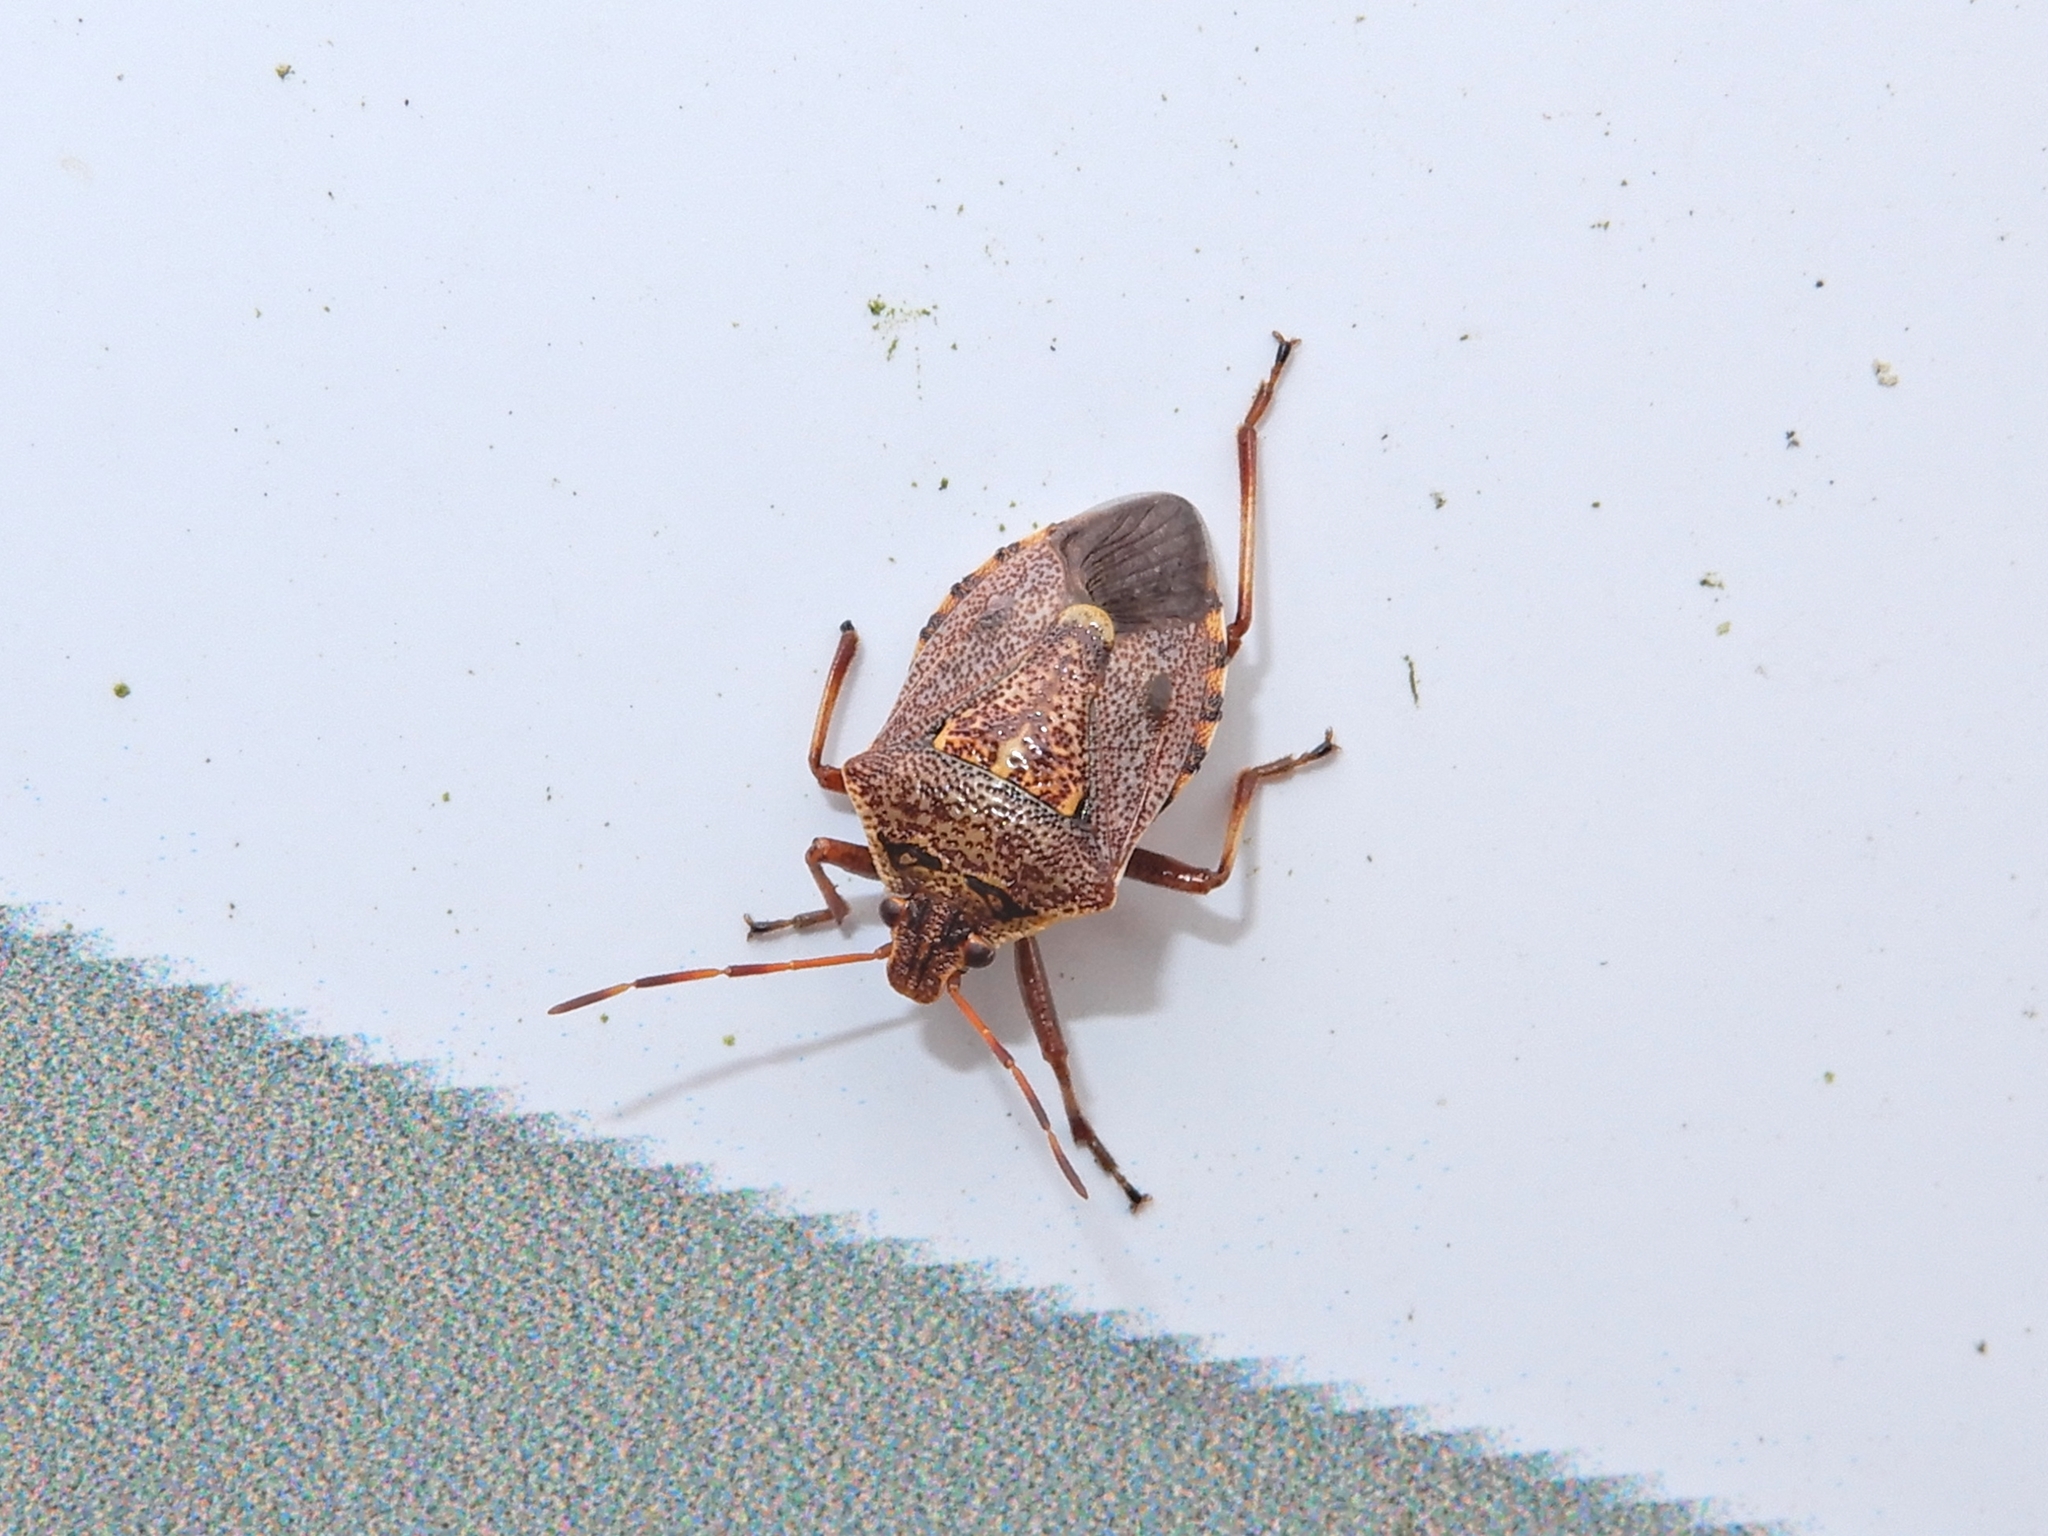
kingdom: Animalia
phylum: Arthropoda
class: Insecta
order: Hemiptera
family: Pentatomidae
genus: Cermatulus
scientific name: Cermatulus nasalis
